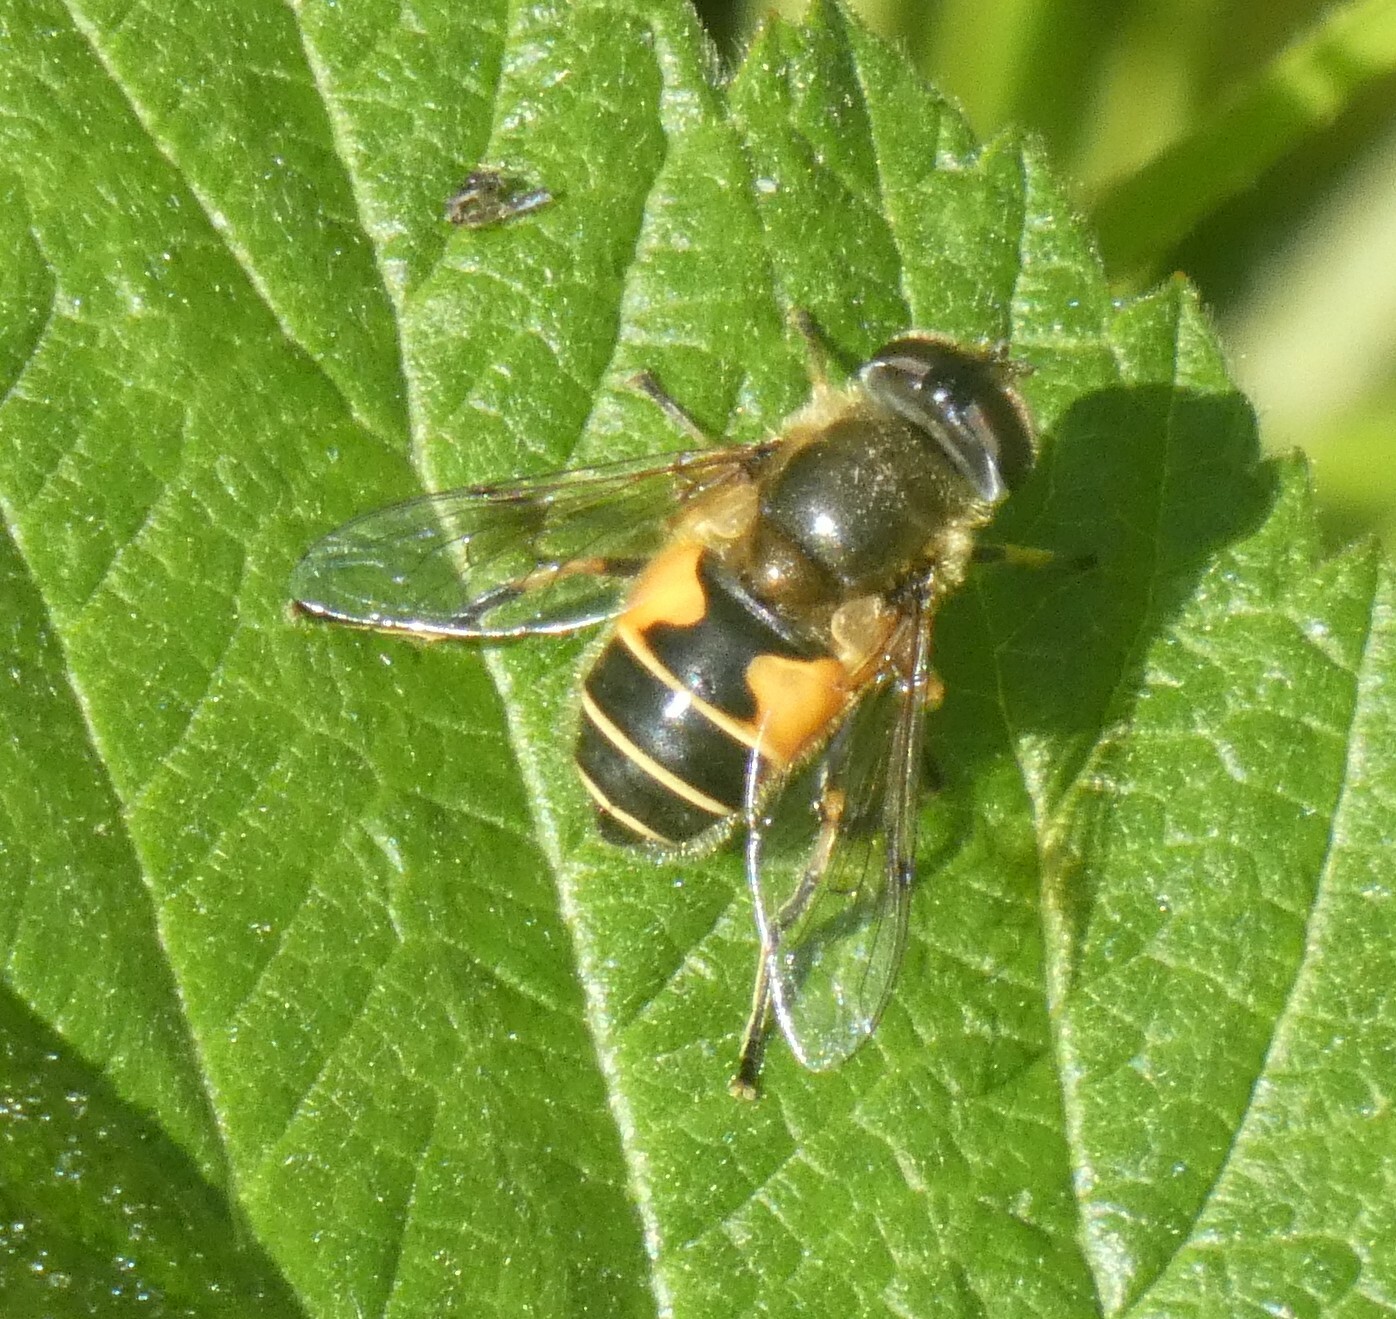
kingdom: Animalia
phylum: Arthropoda
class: Insecta
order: Diptera
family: Syrphidae
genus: Cheilosia
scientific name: Cheilosia morio
